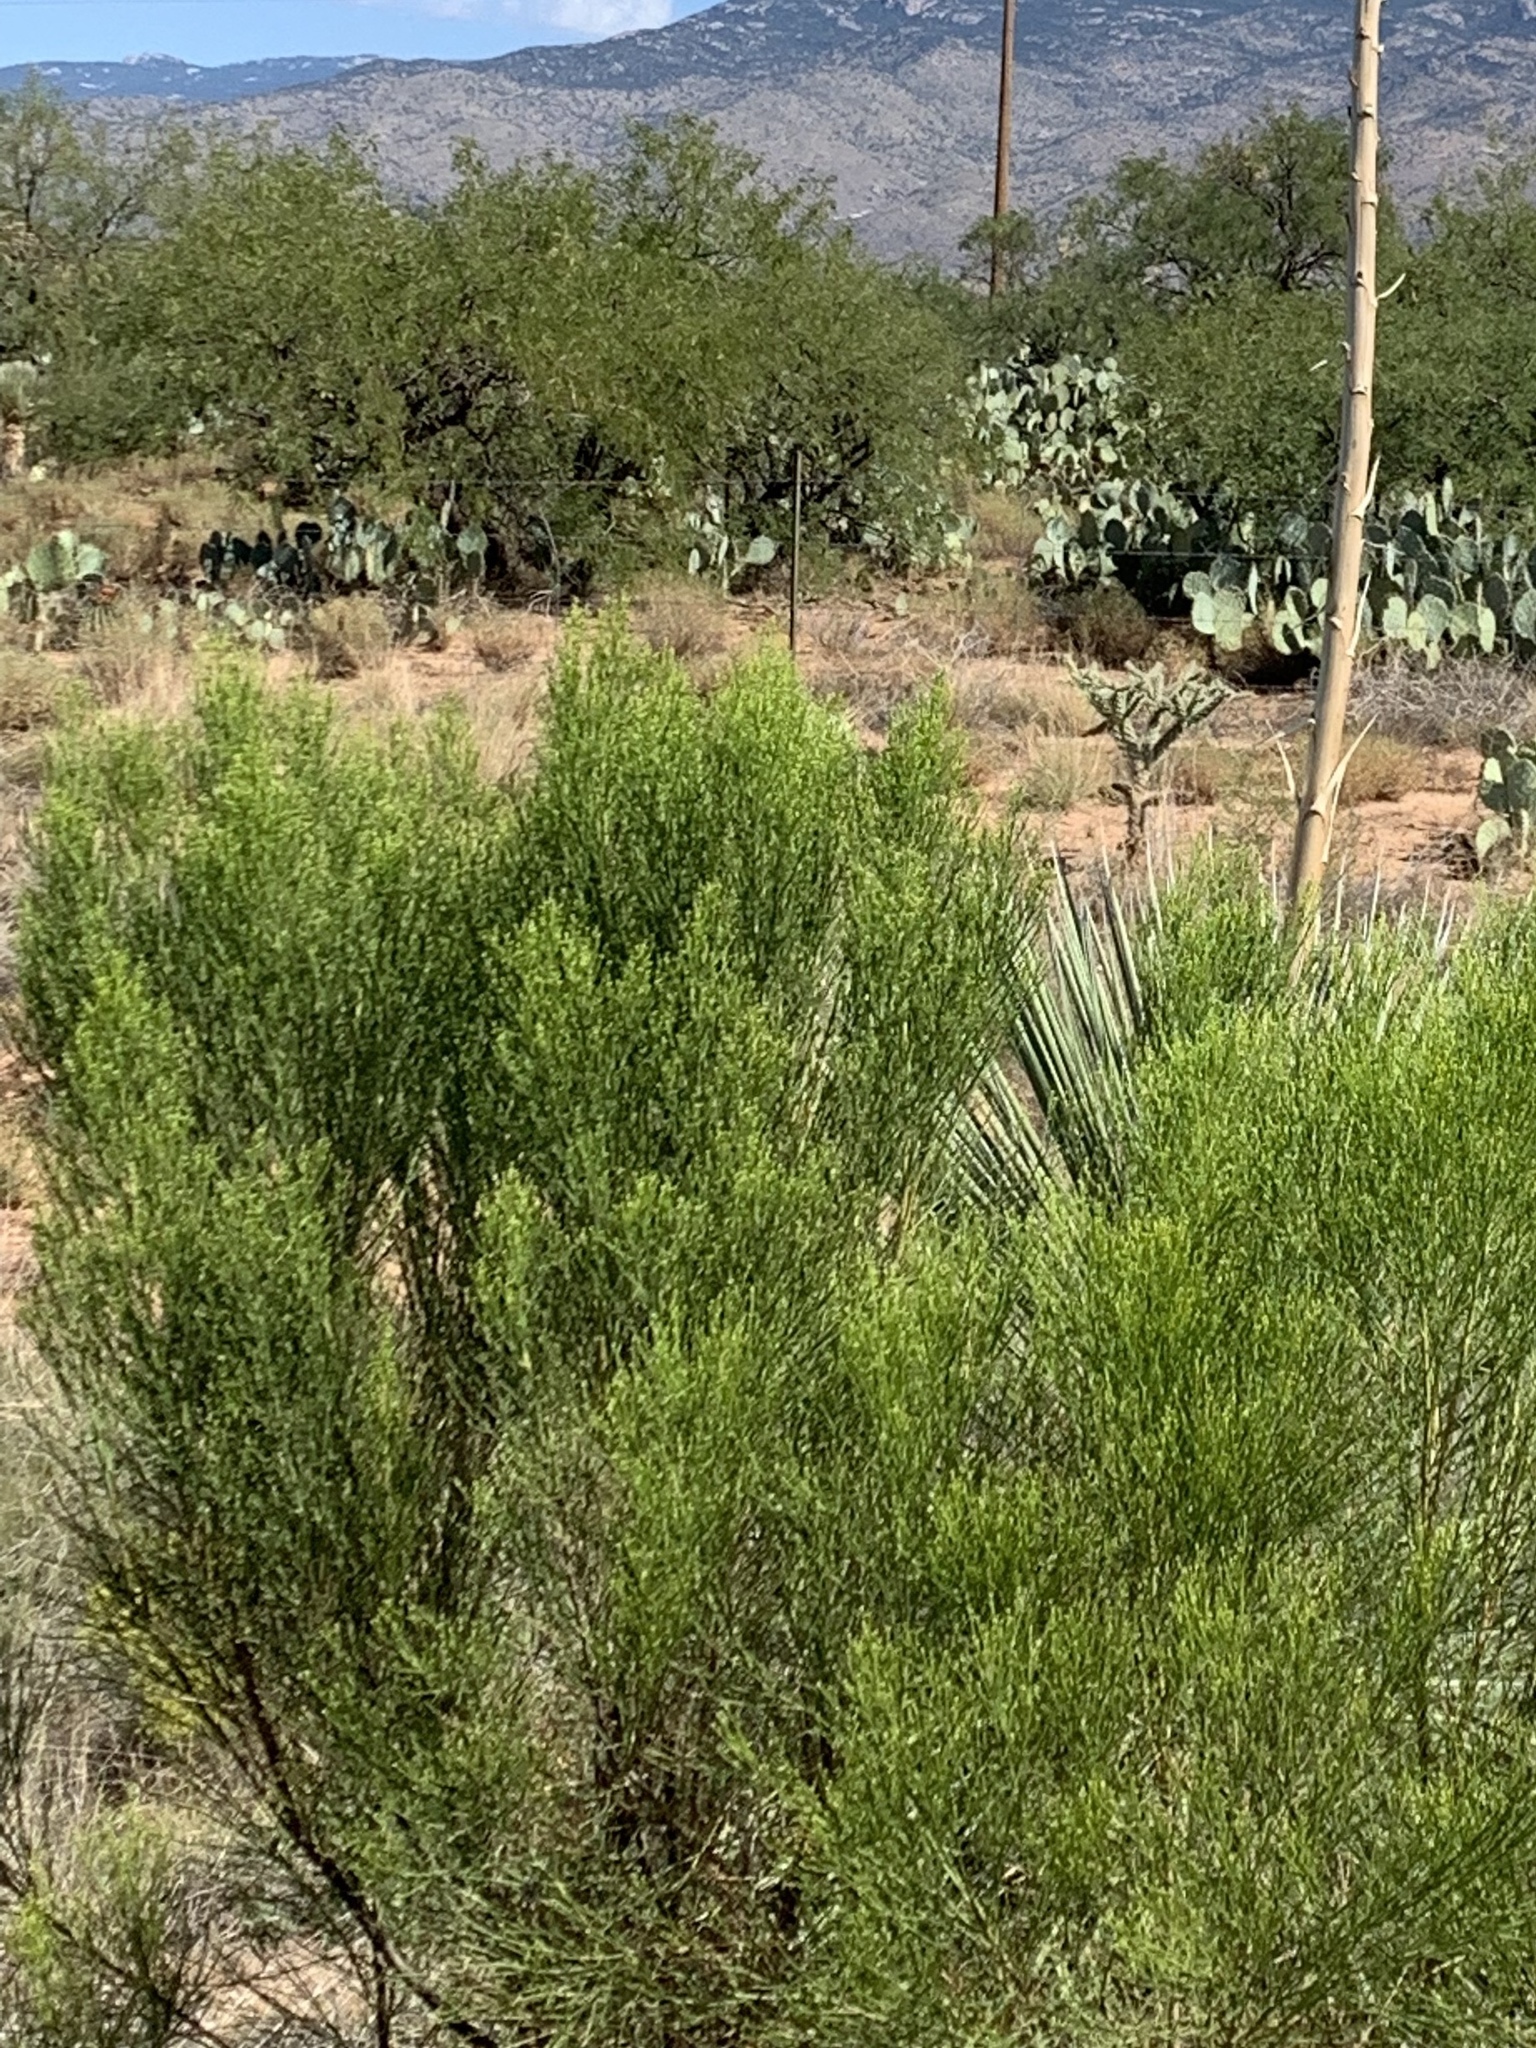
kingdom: Plantae
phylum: Tracheophyta
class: Magnoliopsida
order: Asterales
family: Asteraceae
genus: Baccharis
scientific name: Baccharis sarothroides
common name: Desert-broom
